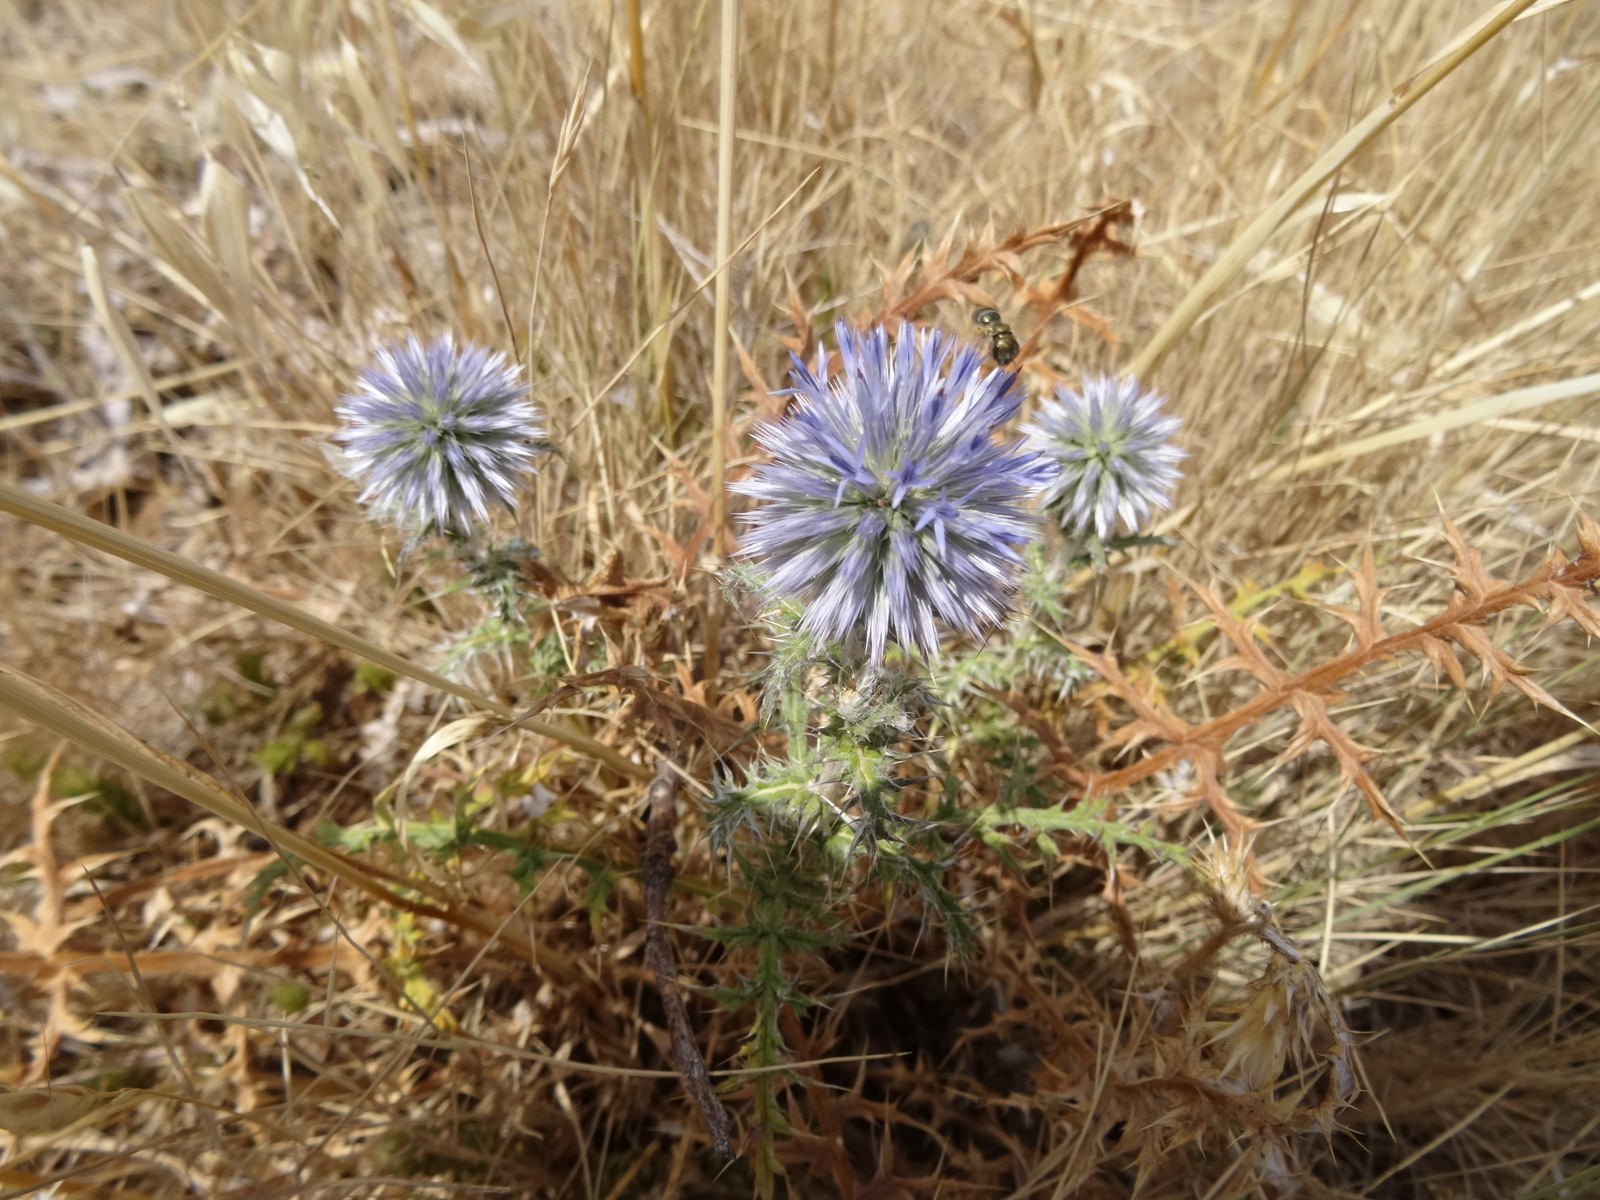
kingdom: Plantae
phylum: Tracheophyta
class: Magnoliopsida
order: Asterales
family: Asteraceae
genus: Echinops
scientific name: Echinops ritro
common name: Globe thistle
